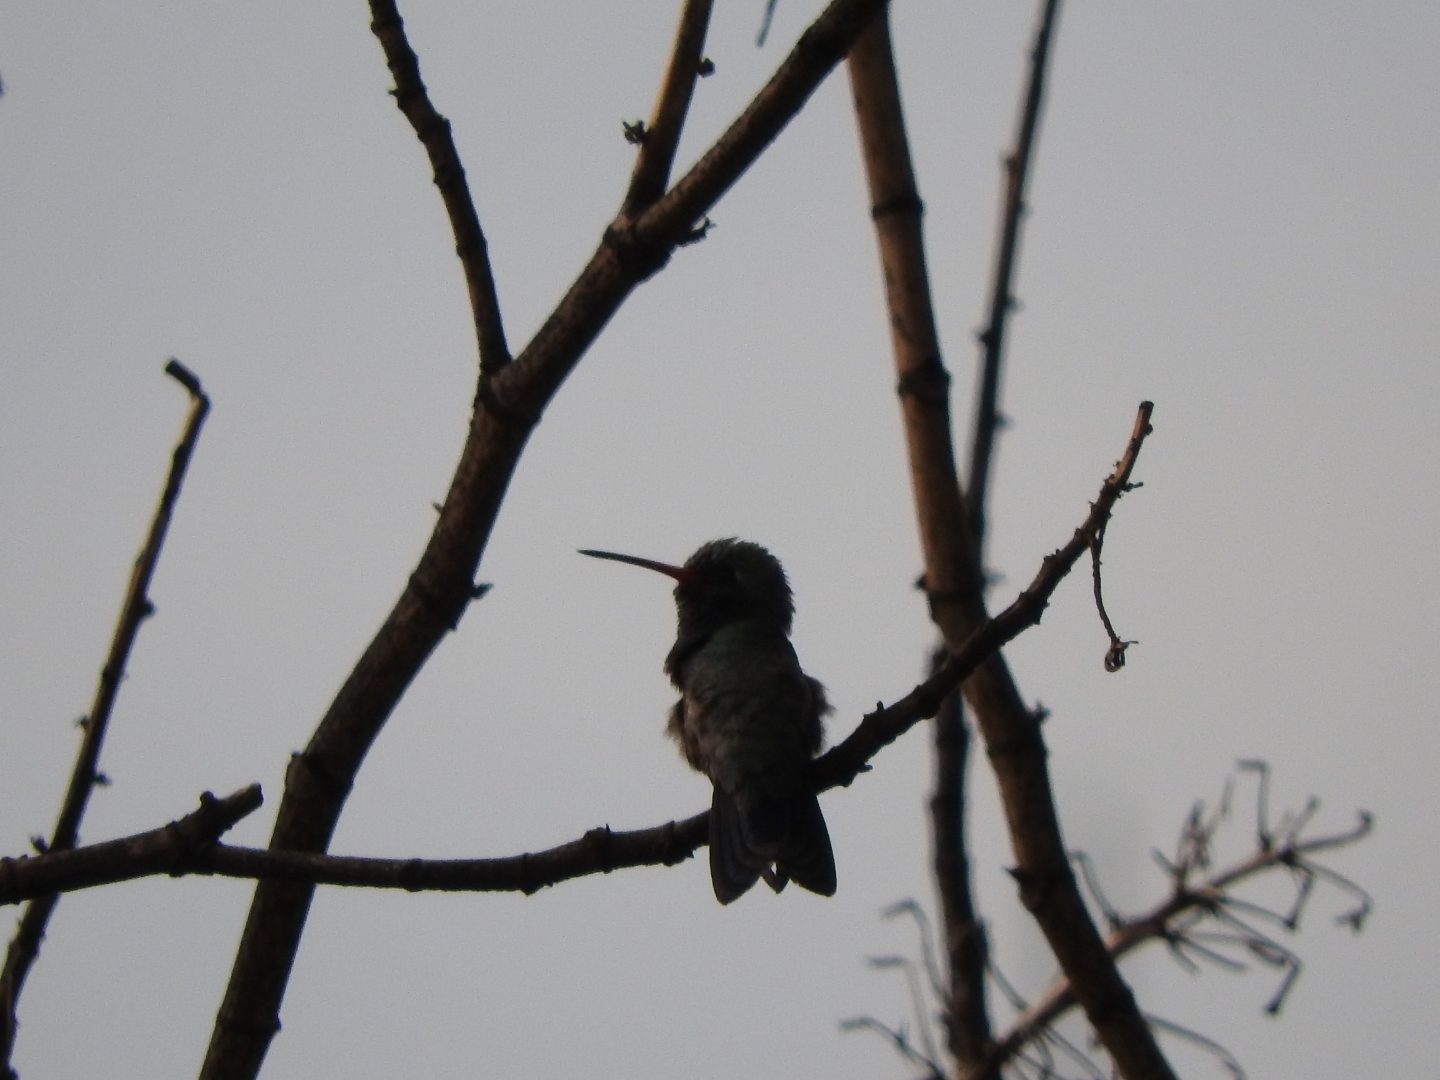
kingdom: Animalia
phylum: Chordata
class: Aves
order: Apodiformes
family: Trochilidae
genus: Cynanthus
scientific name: Cynanthus latirostris
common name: Broad-billed hummingbird
